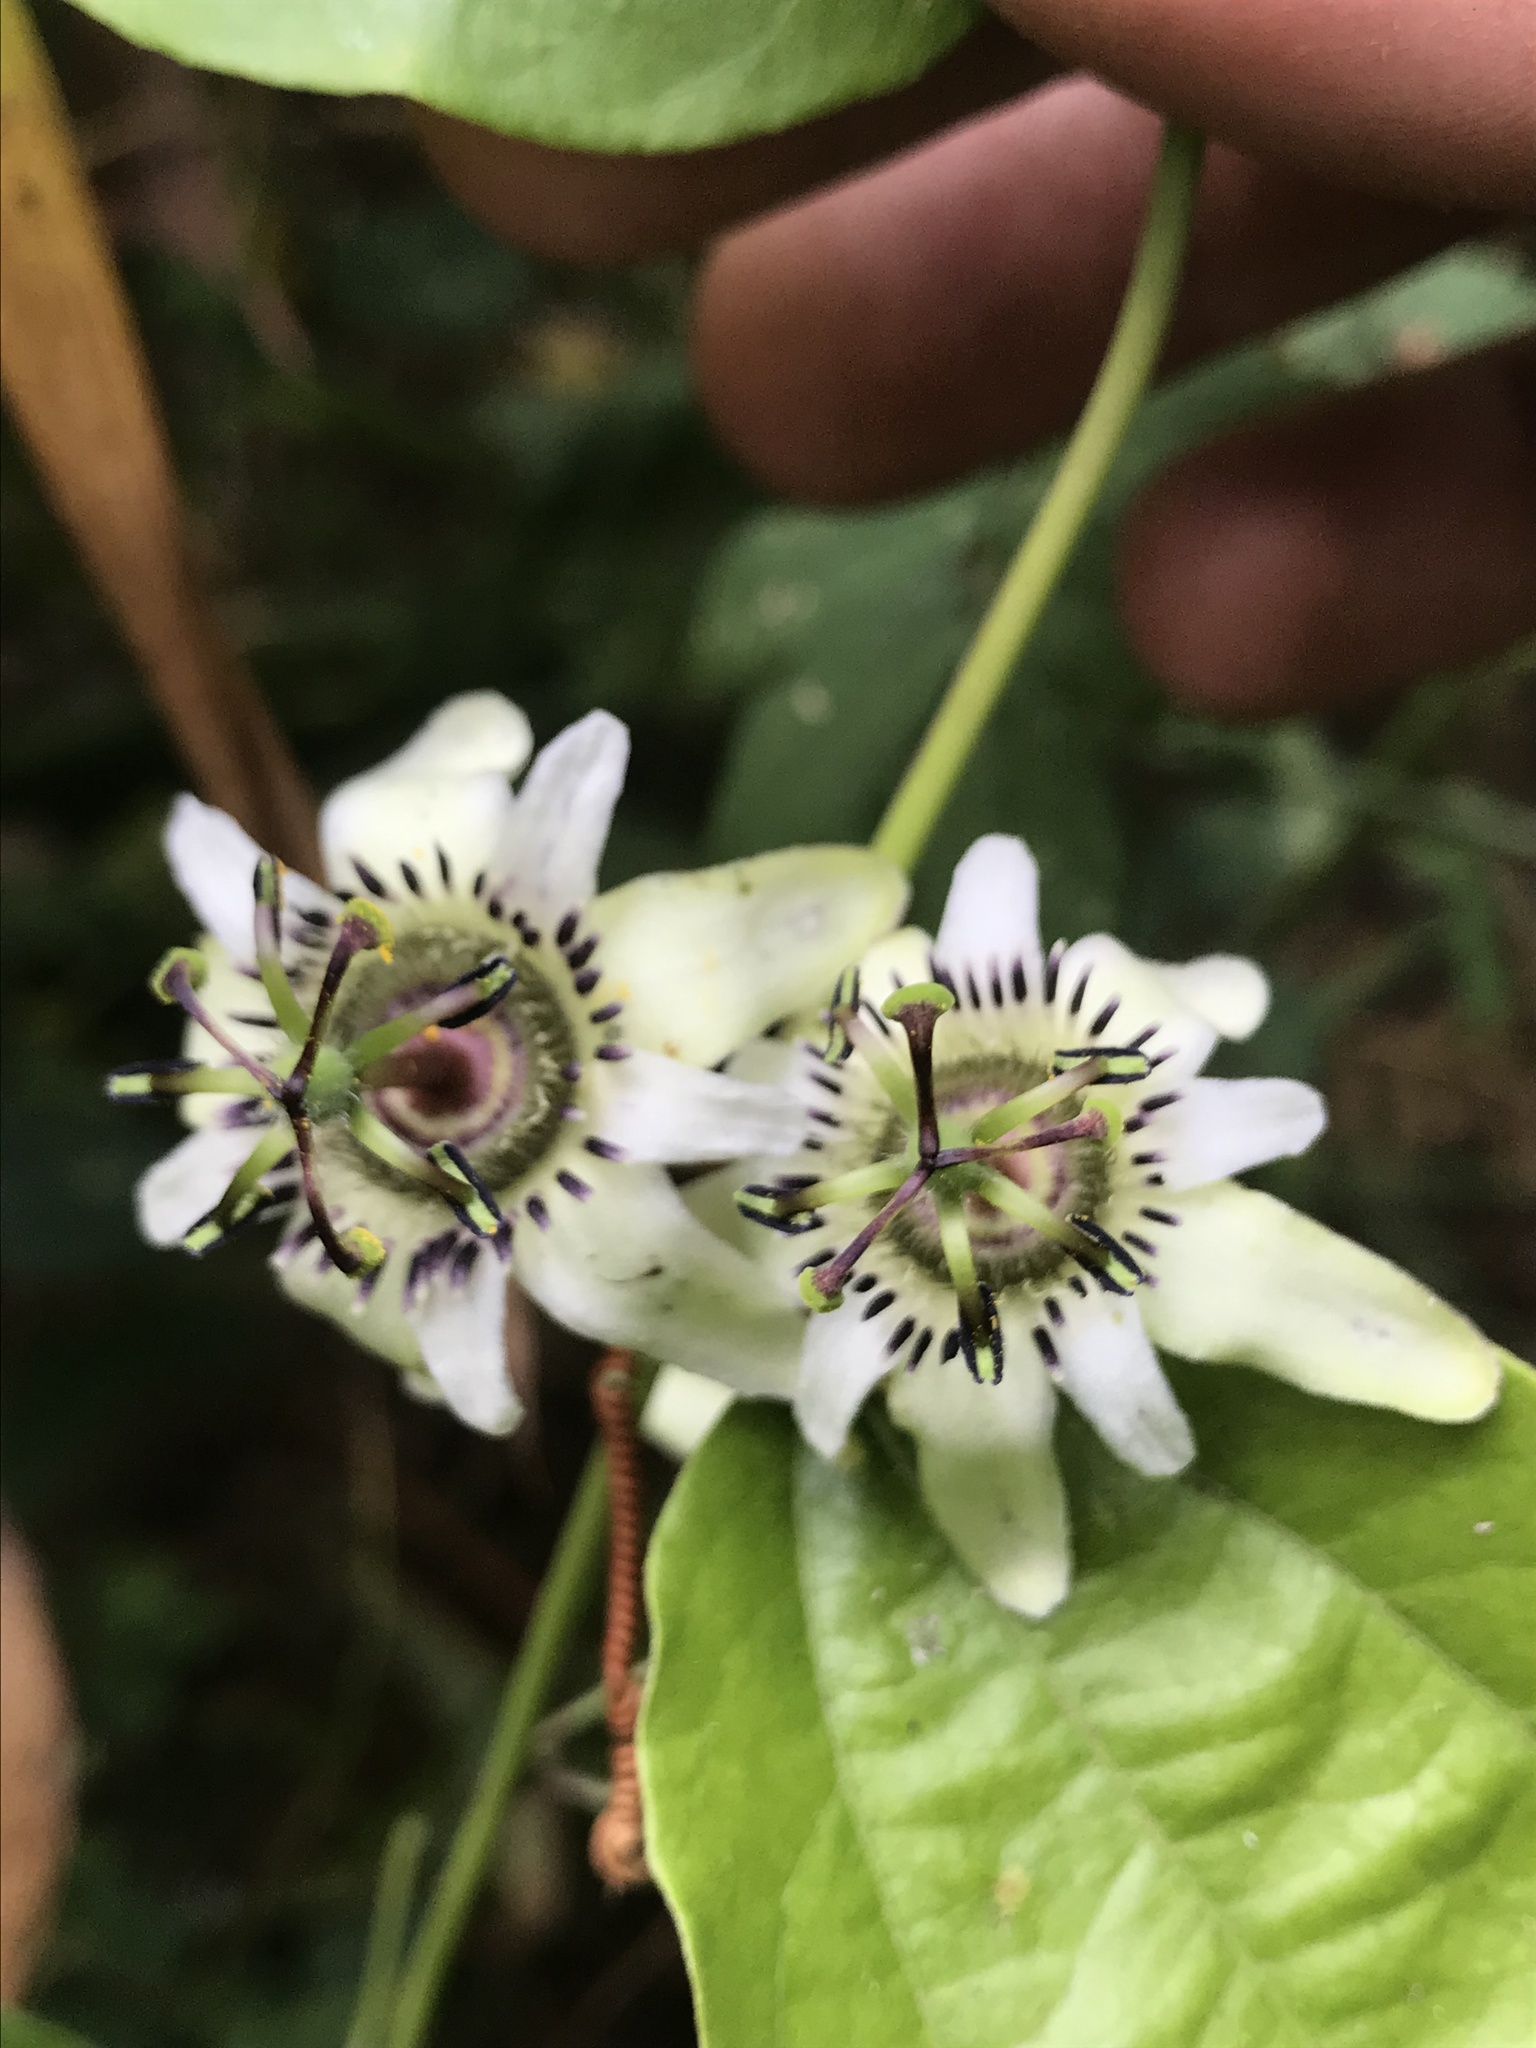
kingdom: Plantae
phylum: Tracheophyta
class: Magnoliopsida
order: Malpighiales
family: Passifloraceae
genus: Passiflora
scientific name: Passiflora cuspidifolia
